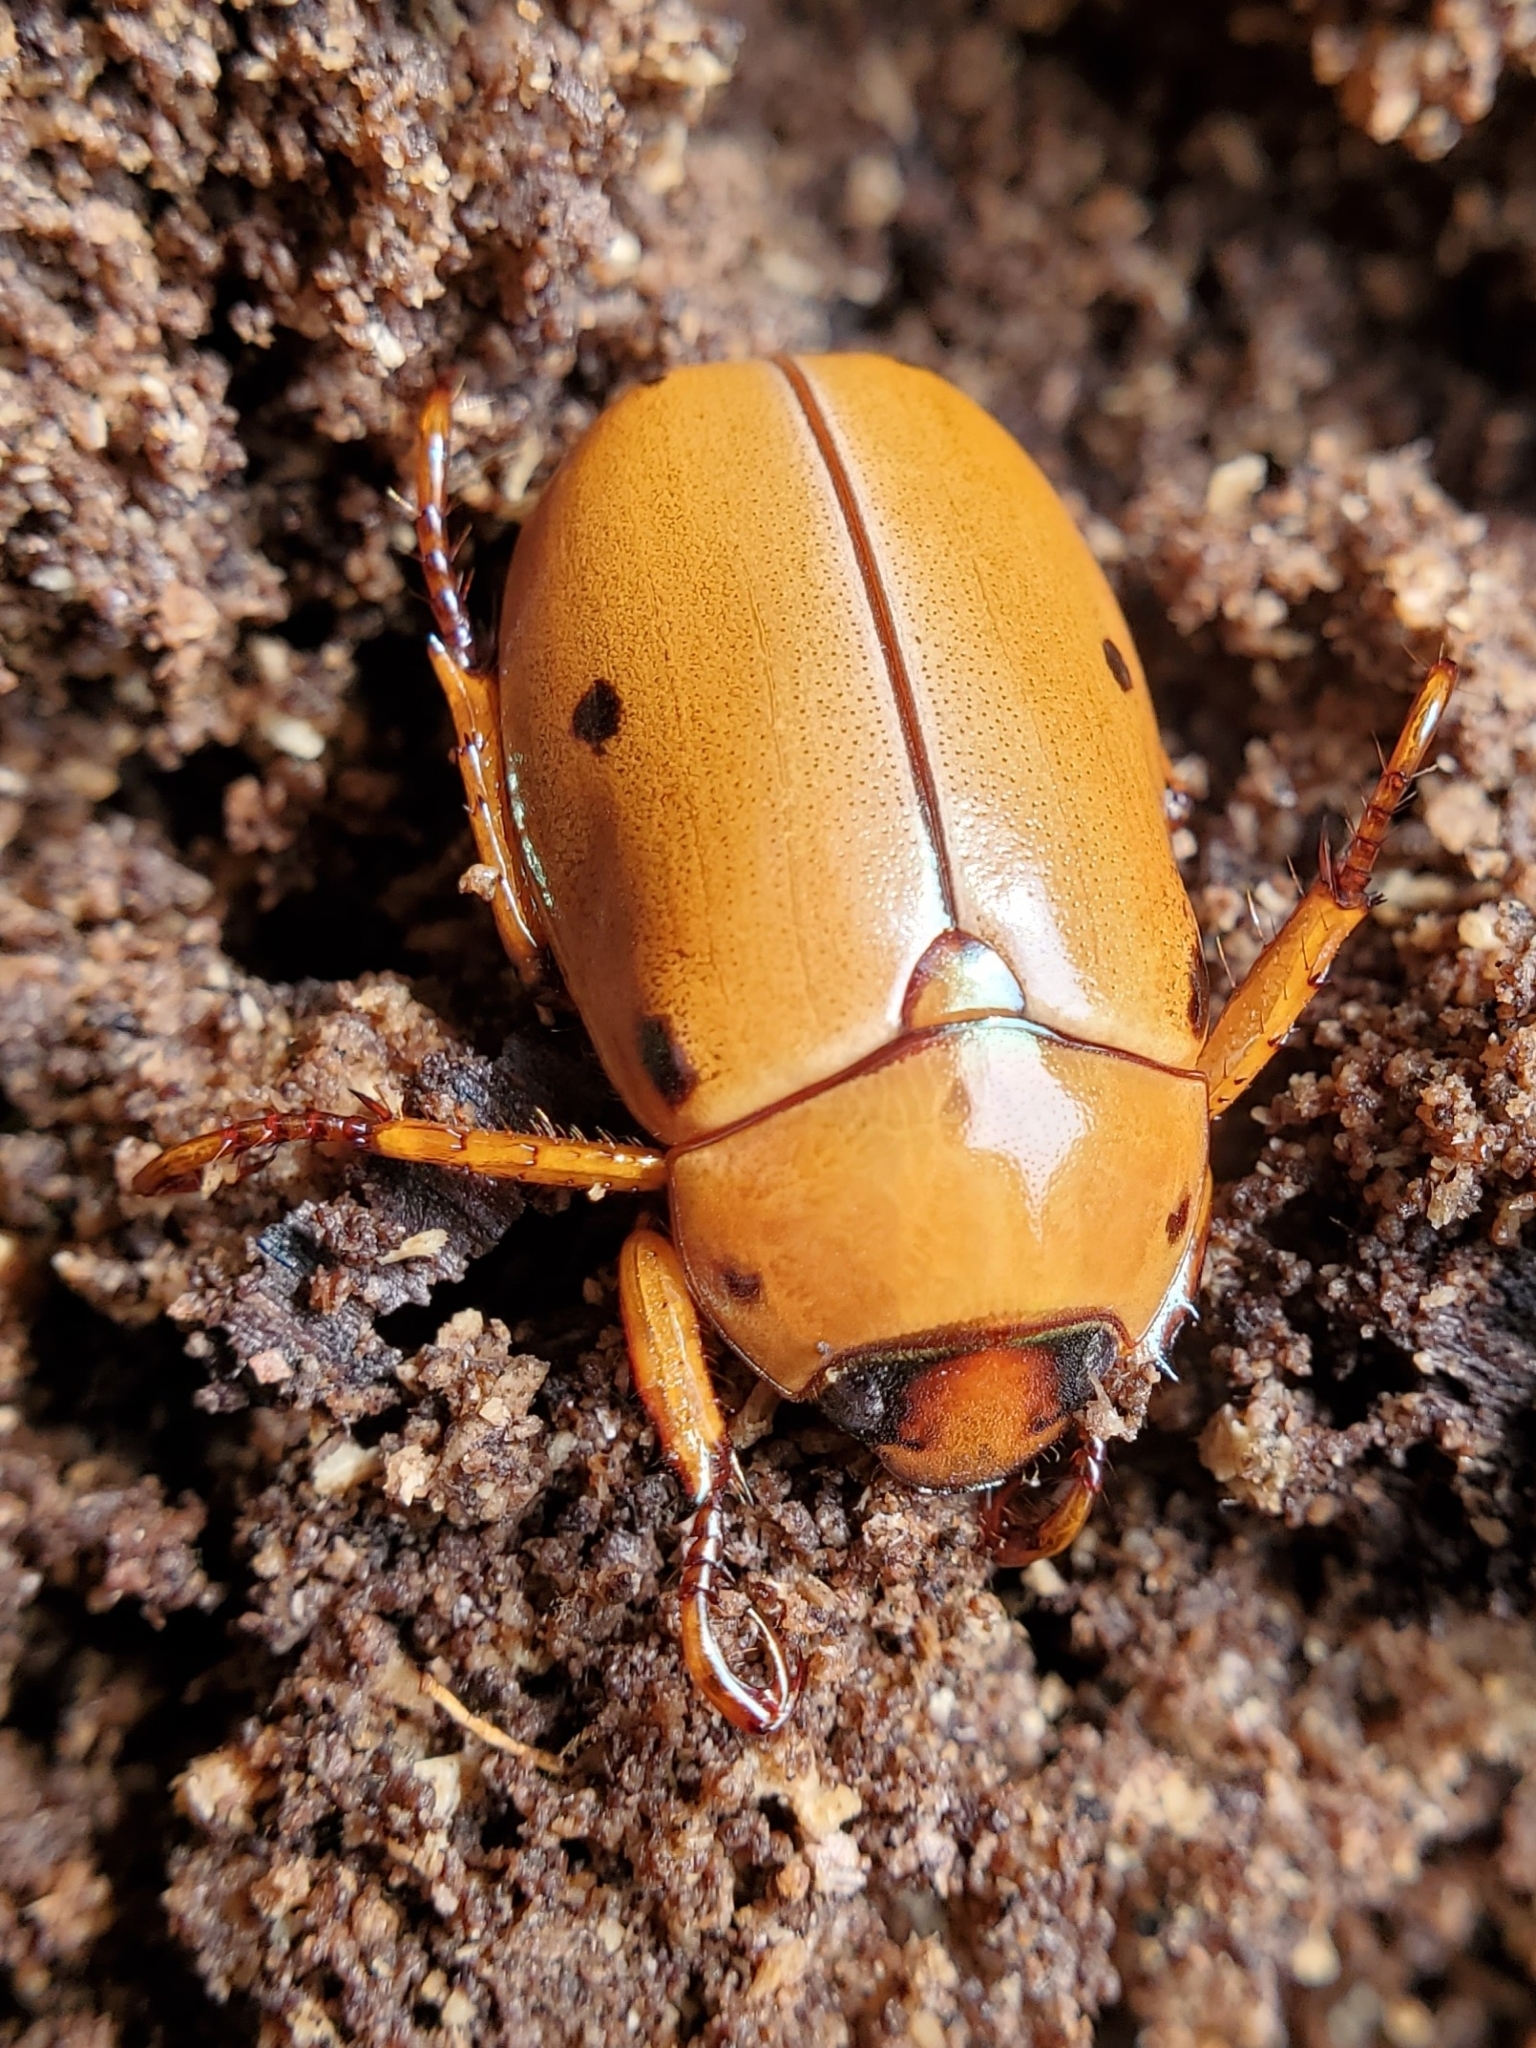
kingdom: Animalia
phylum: Arthropoda
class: Insecta
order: Coleoptera
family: Scarabaeidae
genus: Pelidnota
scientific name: Pelidnota punctata
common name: Grapevine beetle
